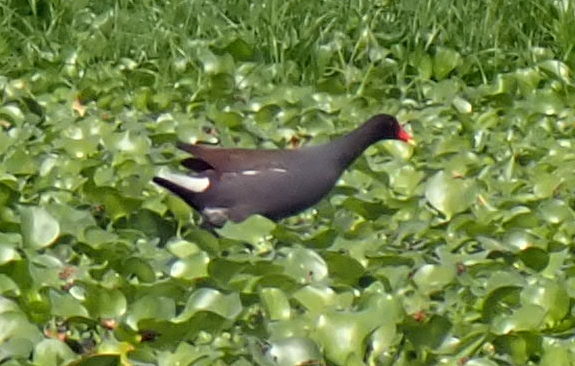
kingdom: Animalia
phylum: Chordata
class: Aves
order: Gruiformes
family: Rallidae
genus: Gallinula
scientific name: Gallinula chloropus
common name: Common moorhen
